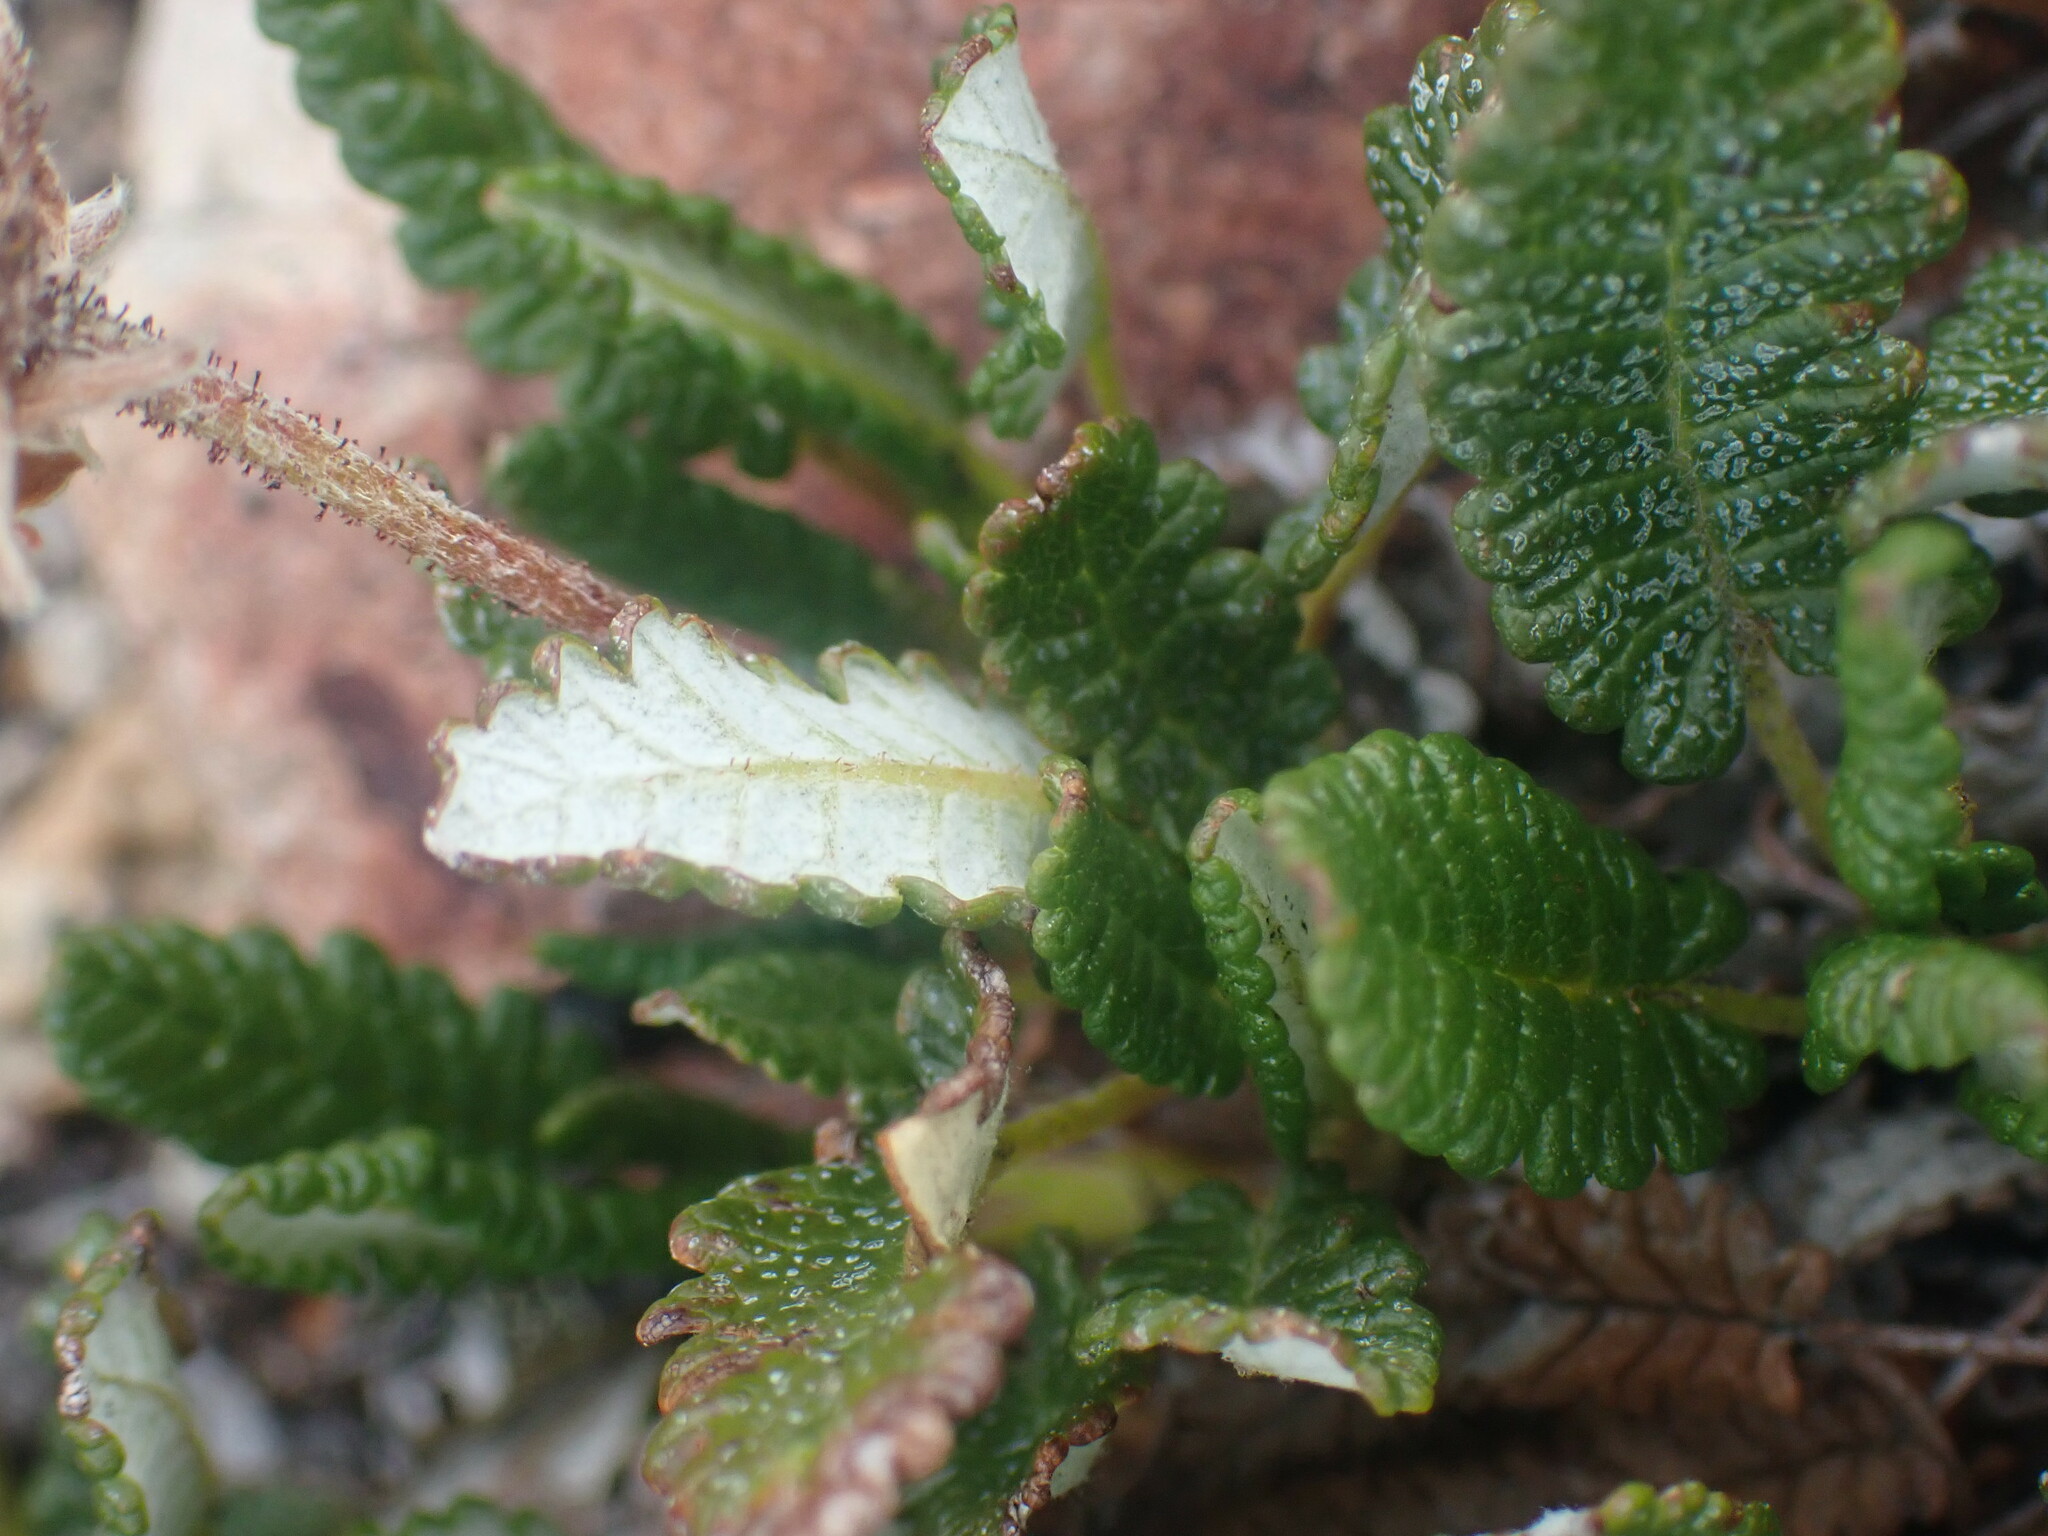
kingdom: Plantae
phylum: Tracheophyta
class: Magnoliopsida
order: Rosales
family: Rosaceae
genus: Dryas
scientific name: Dryas octopetala
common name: Eight-petal mountain-avens
